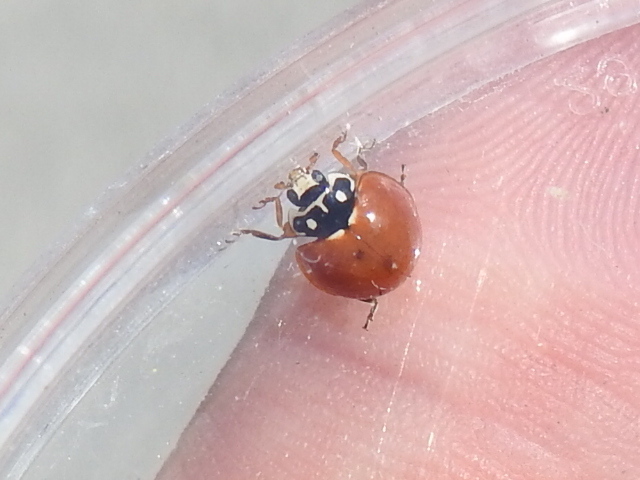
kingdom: Animalia
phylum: Arthropoda
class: Insecta
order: Coleoptera
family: Coccinellidae
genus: Cycloneda
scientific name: Cycloneda sanguinea
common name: Ladybird beetle
